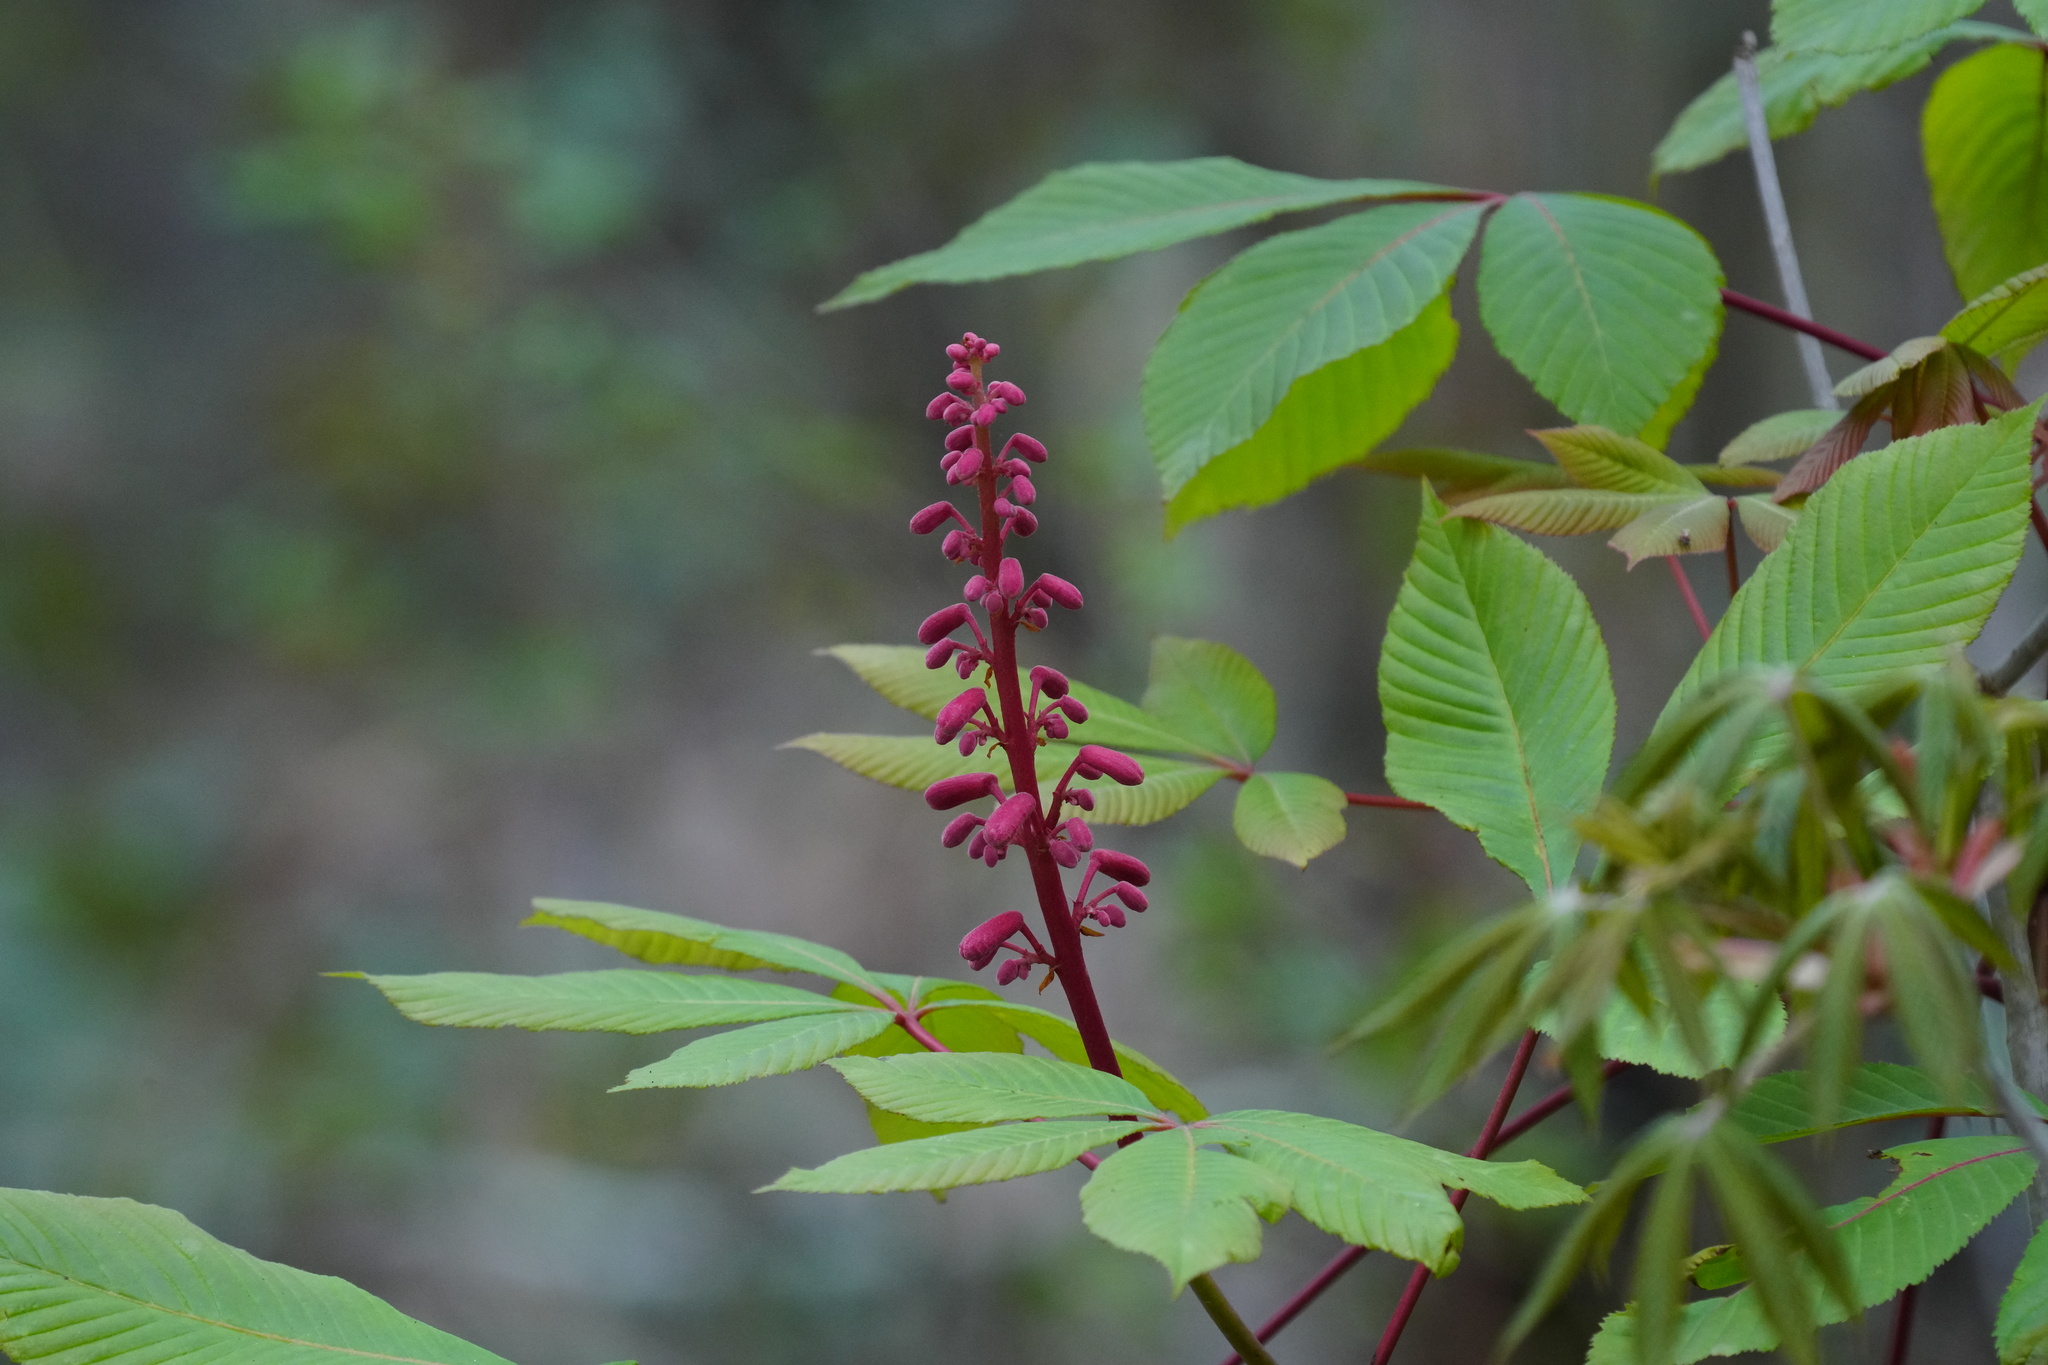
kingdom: Plantae
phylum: Tracheophyta
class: Magnoliopsida
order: Sapindales
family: Sapindaceae
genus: Aesculus
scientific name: Aesculus pavia
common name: Red buckeye
